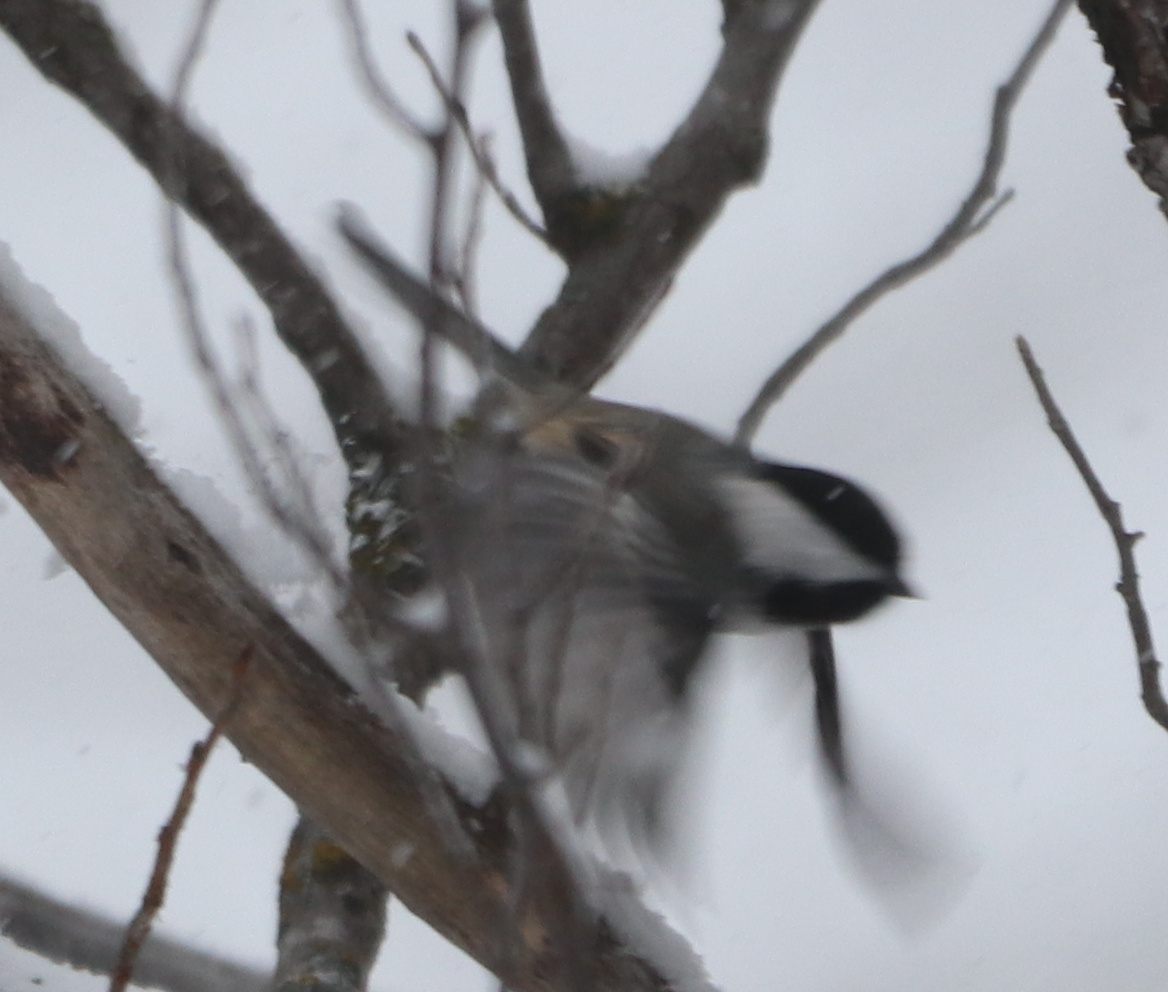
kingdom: Animalia
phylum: Chordata
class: Aves
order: Passeriformes
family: Paridae
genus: Poecile
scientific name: Poecile atricapillus
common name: Black-capped chickadee
